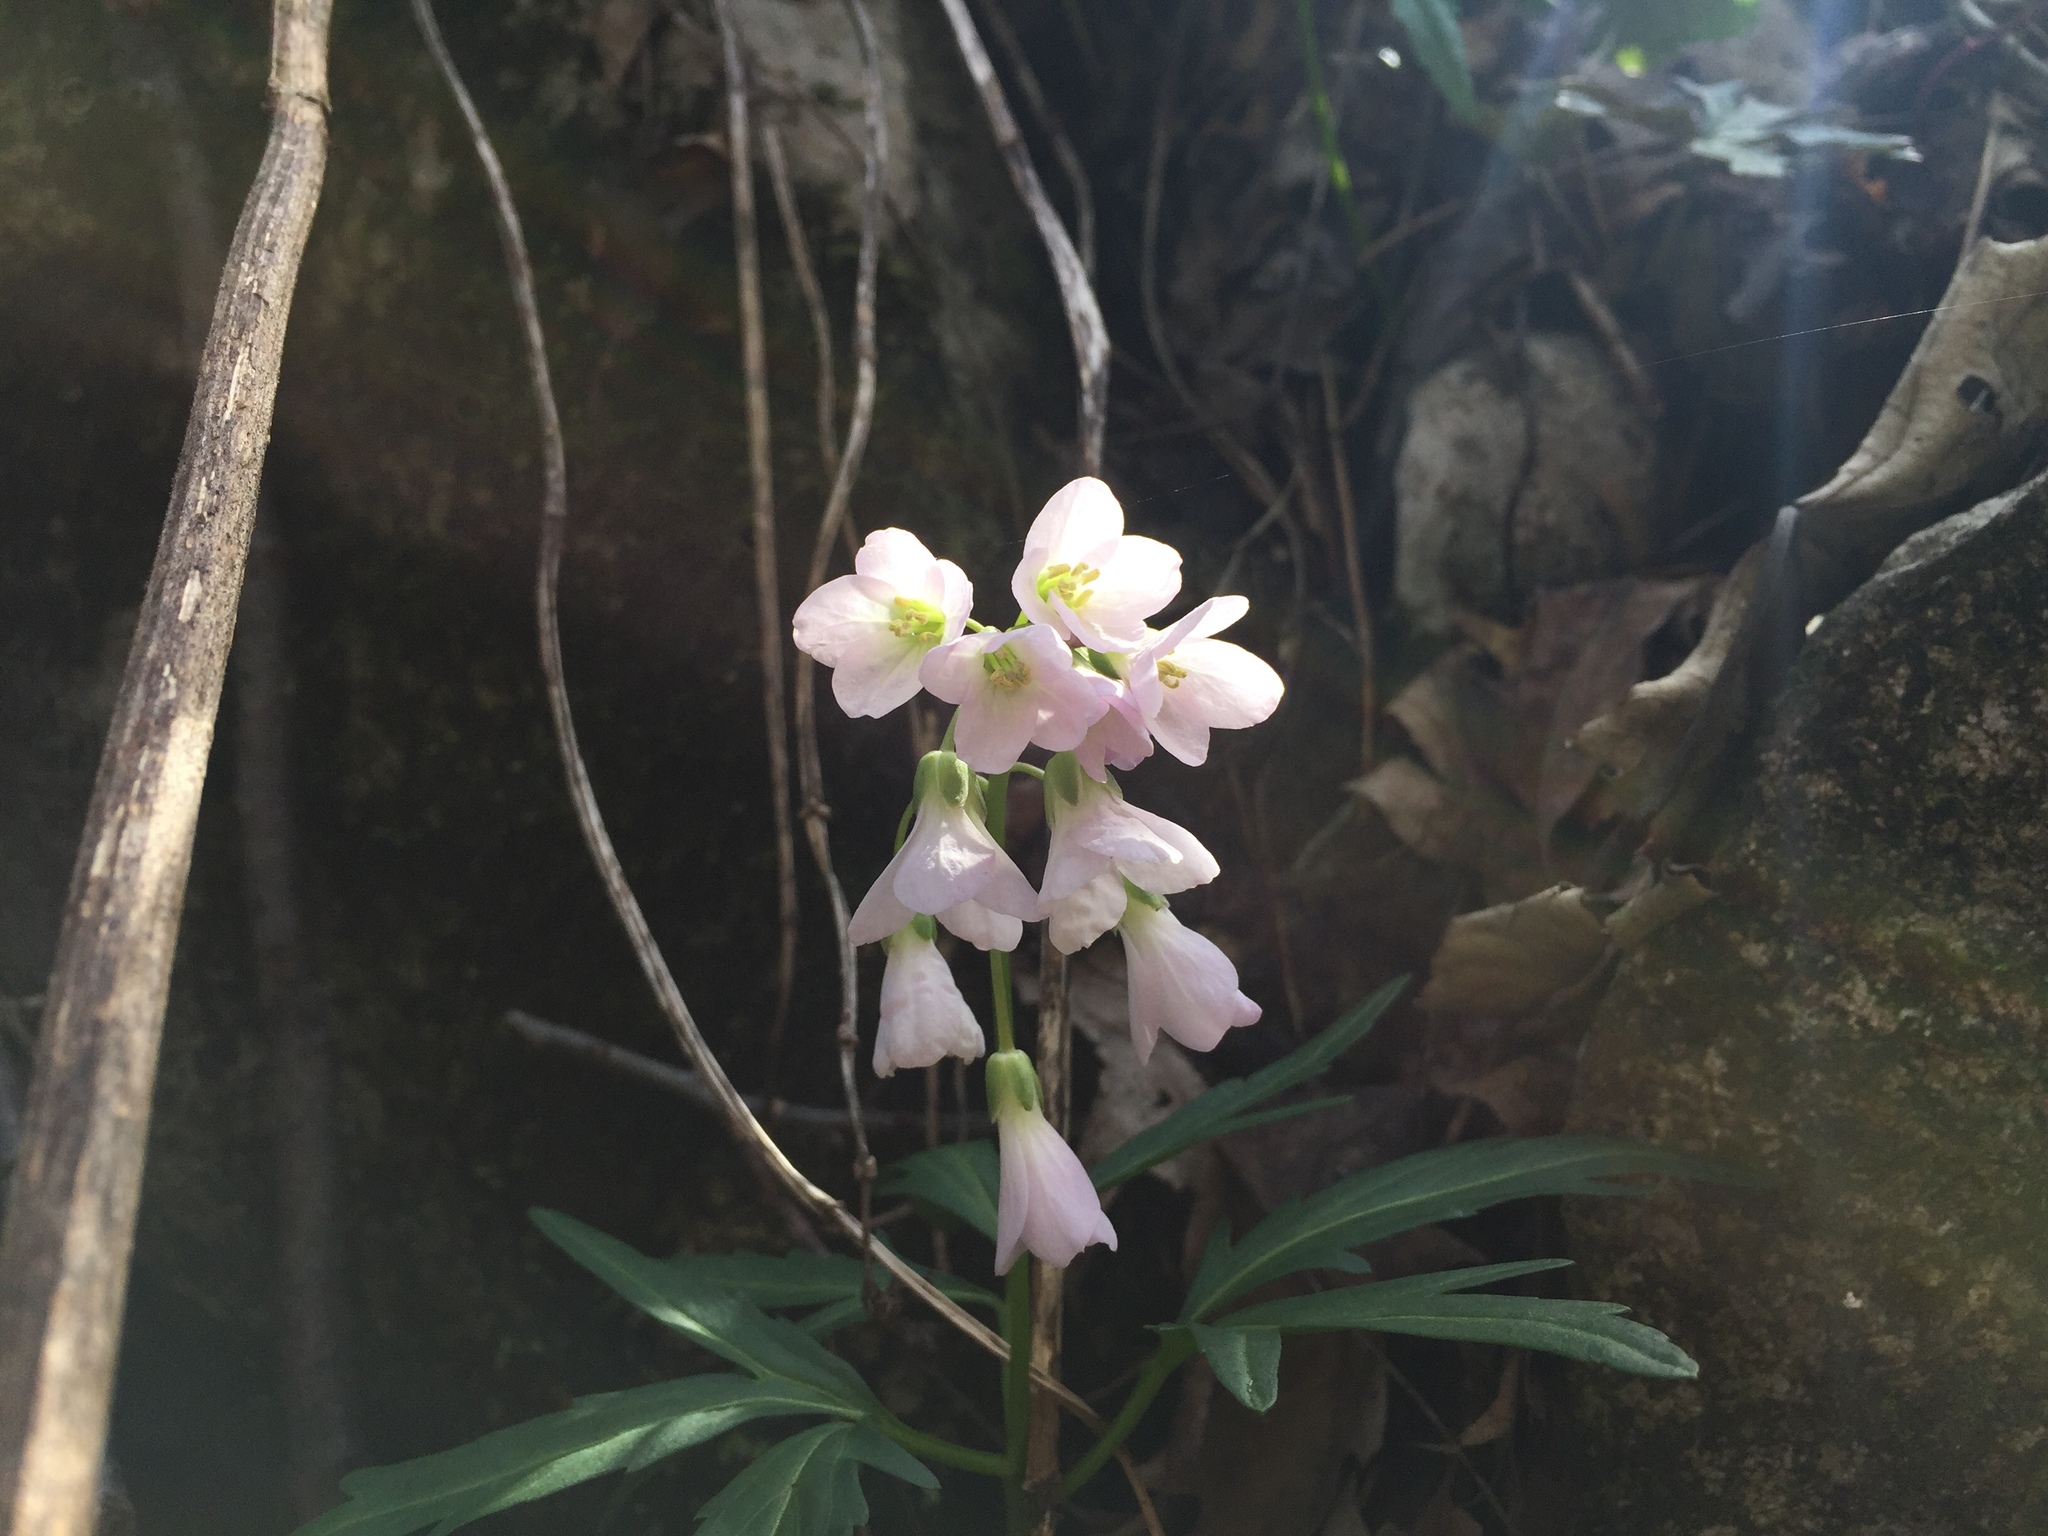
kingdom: Plantae
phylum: Tracheophyta
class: Magnoliopsida
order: Brassicales
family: Brassicaceae
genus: Cardamine
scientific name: Cardamine concatenata
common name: Cut-leaf toothcup
